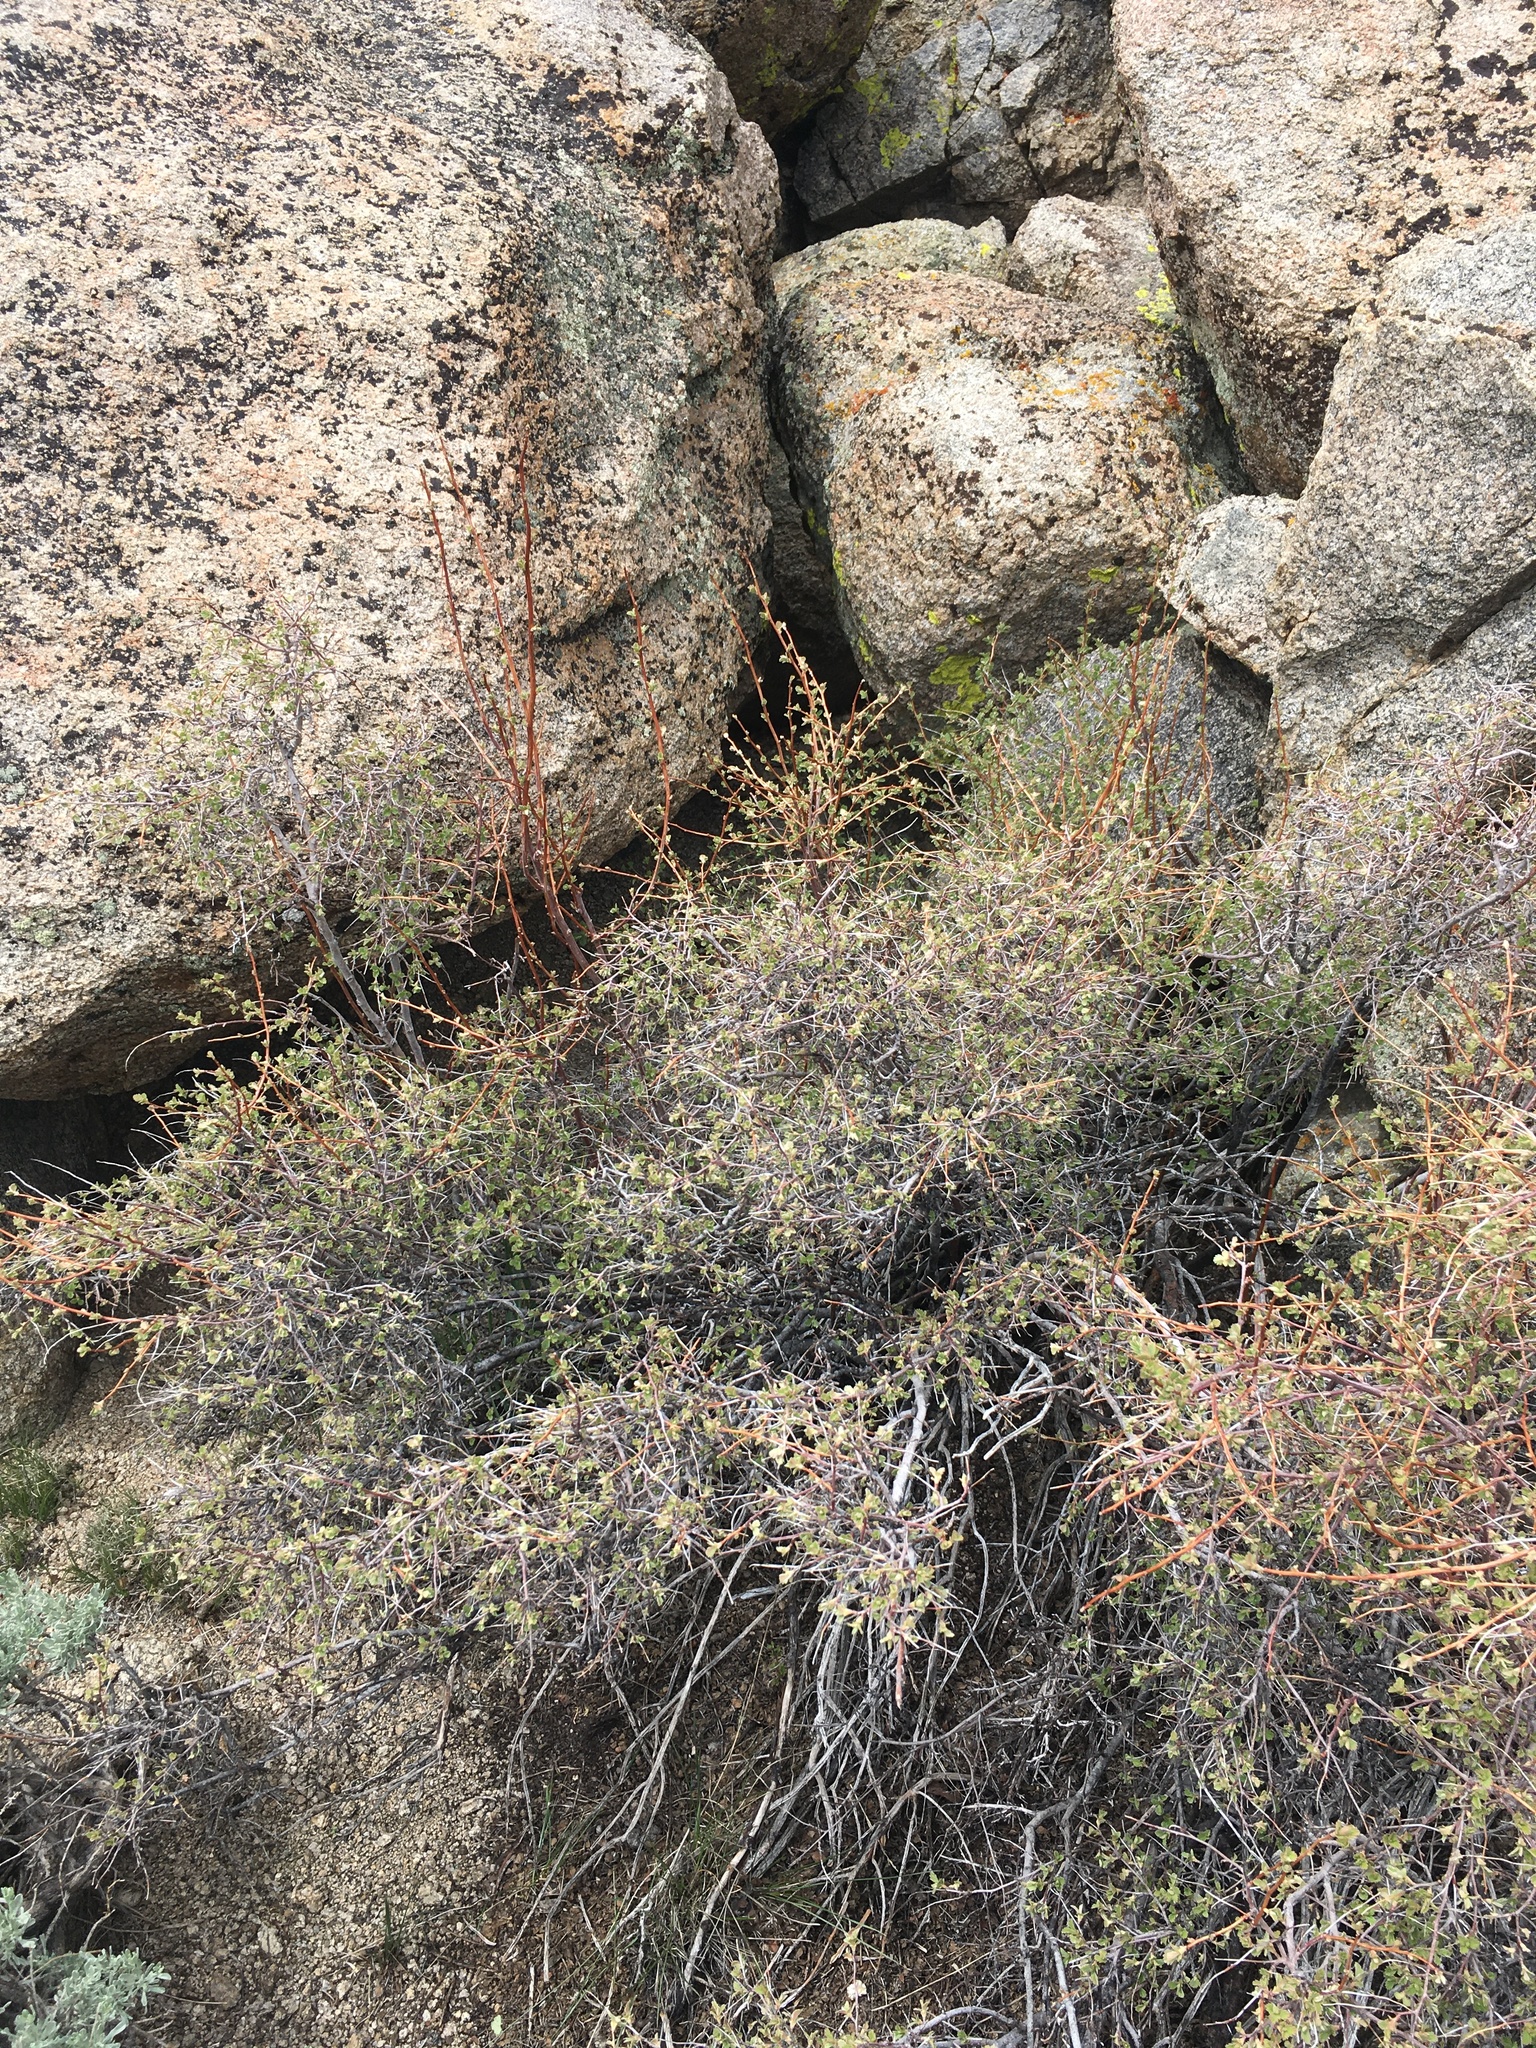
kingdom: Plantae
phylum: Tracheophyta
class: Magnoliopsida
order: Rosales
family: Rosaceae
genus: Holodiscus
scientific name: Holodiscus discolor
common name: Oceanspray
